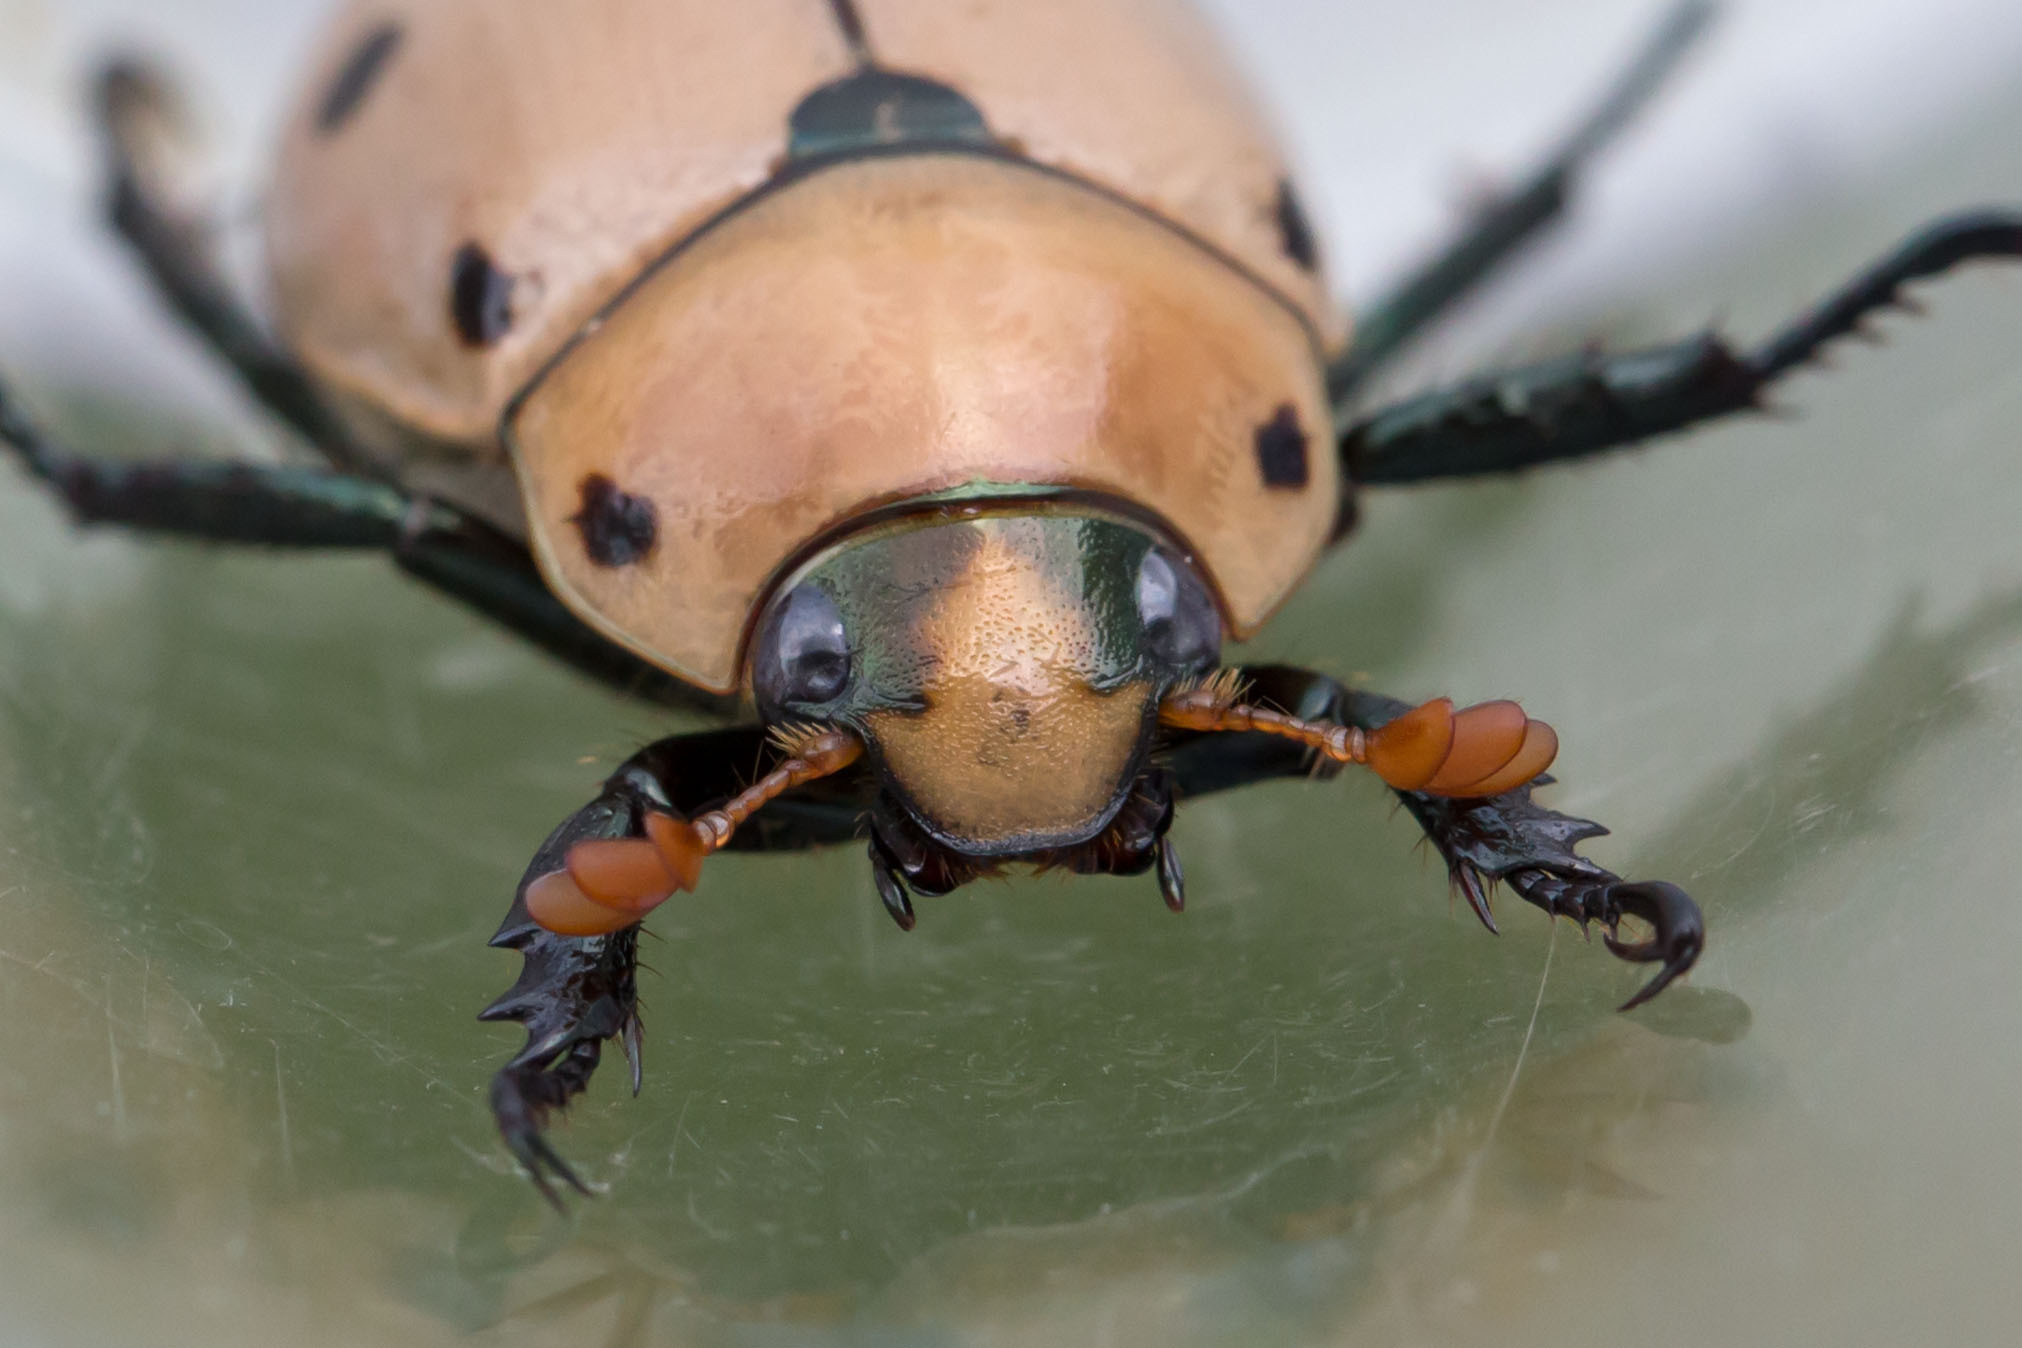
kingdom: Animalia
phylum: Arthropoda
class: Insecta
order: Coleoptera
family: Scarabaeidae
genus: Pelidnota
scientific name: Pelidnota punctata
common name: Grapevine beetle
